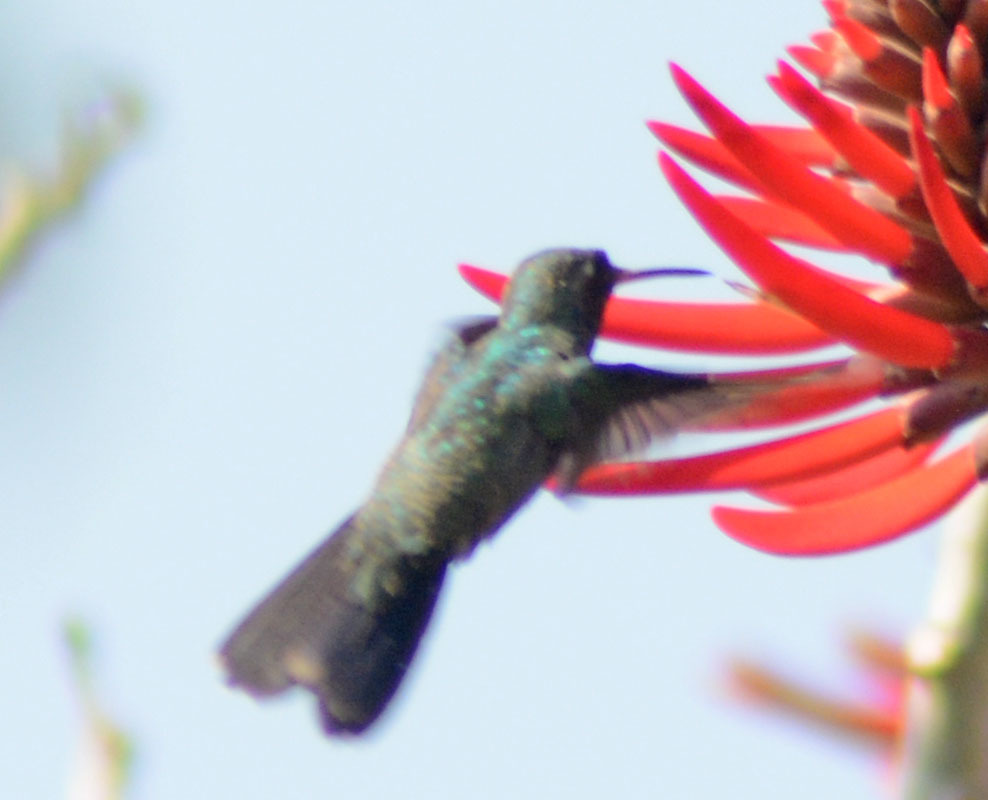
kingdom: Animalia
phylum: Chordata
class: Aves
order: Apodiformes
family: Trochilidae
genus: Cynanthus
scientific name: Cynanthus latirostris
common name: Broad-billed hummingbird
